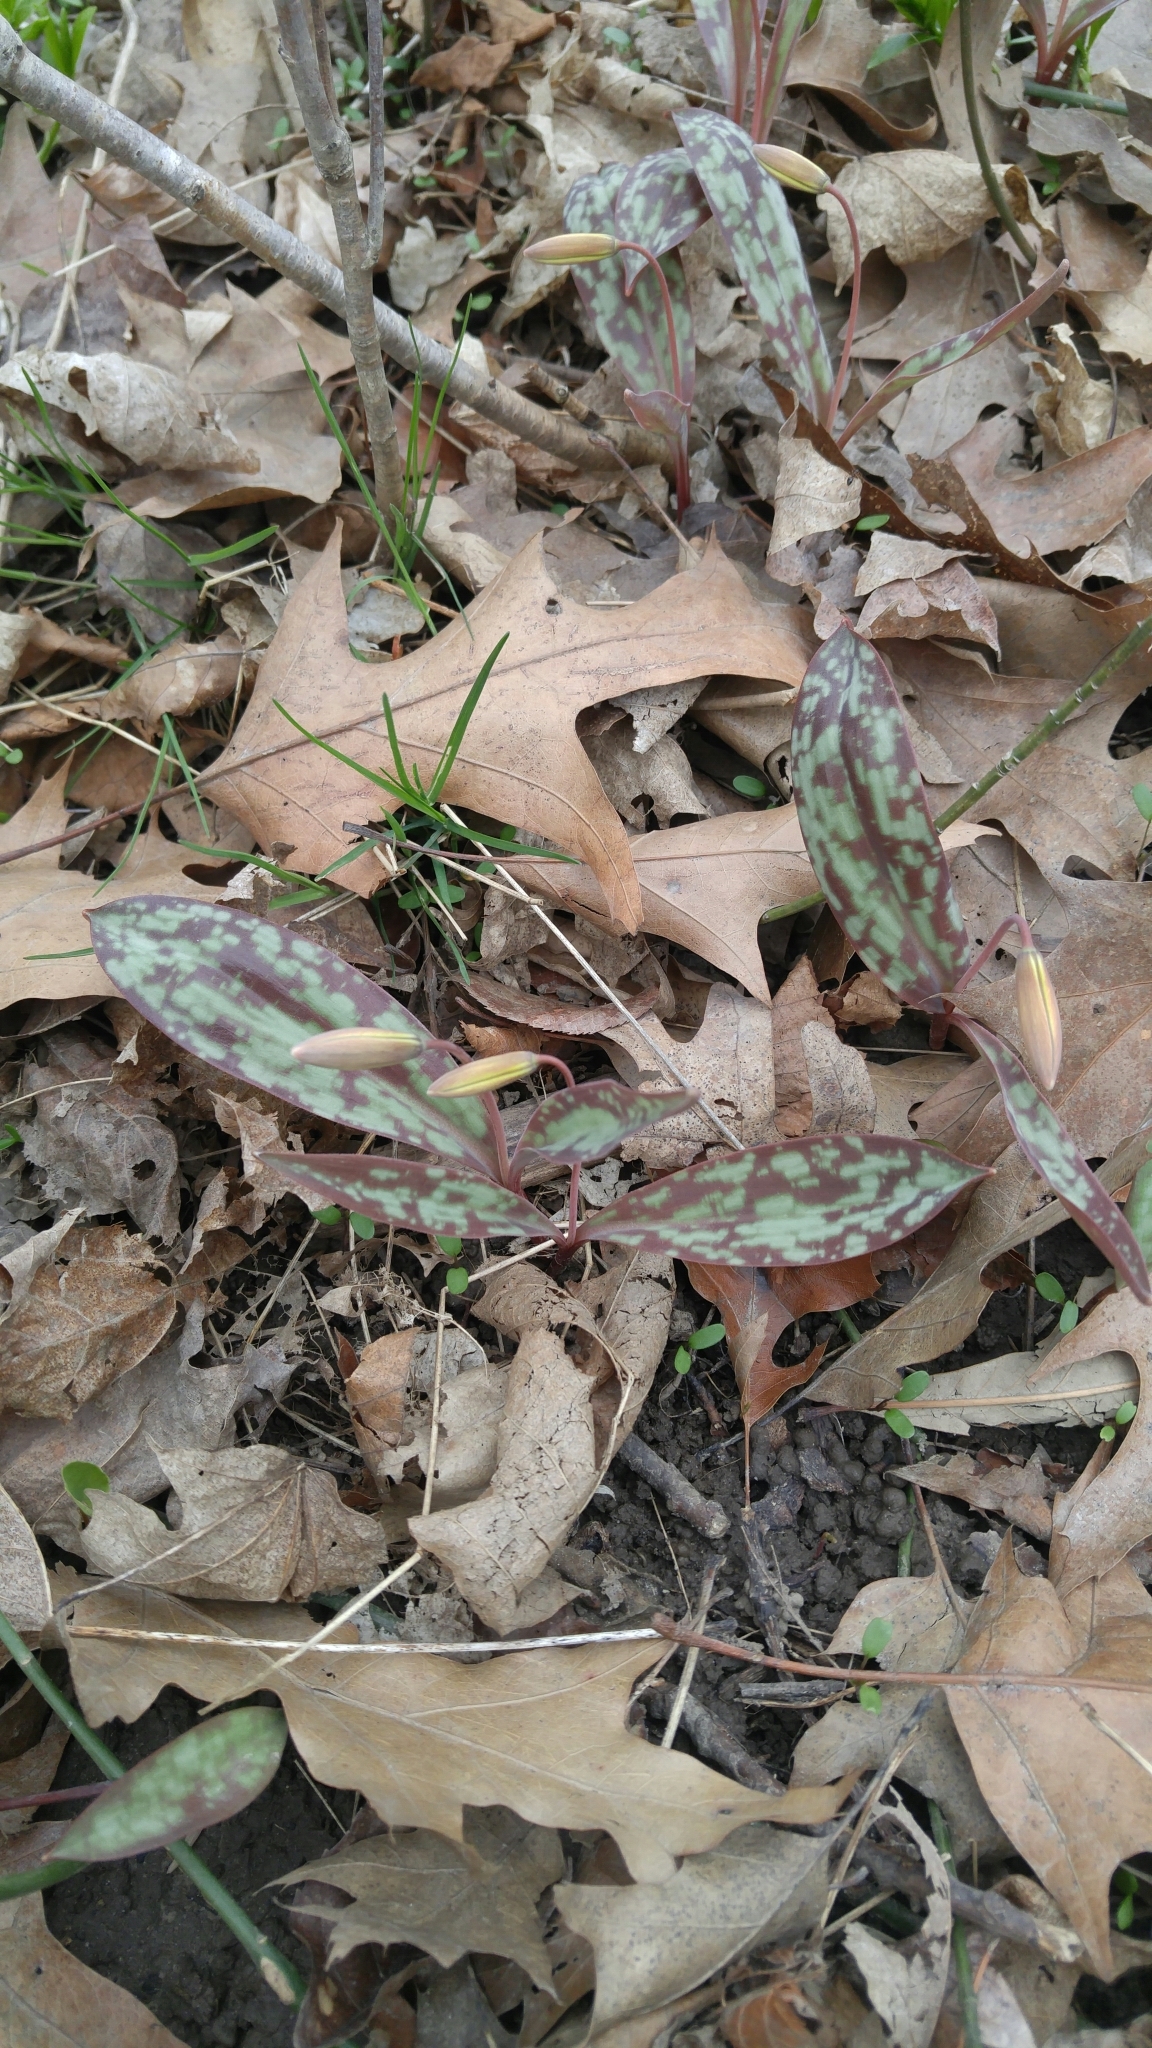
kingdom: Plantae
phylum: Tracheophyta
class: Liliopsida
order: Liliales
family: Liliaceae
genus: Erythronium
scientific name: Erythronium americanum
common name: Yellow adder's-tongue
